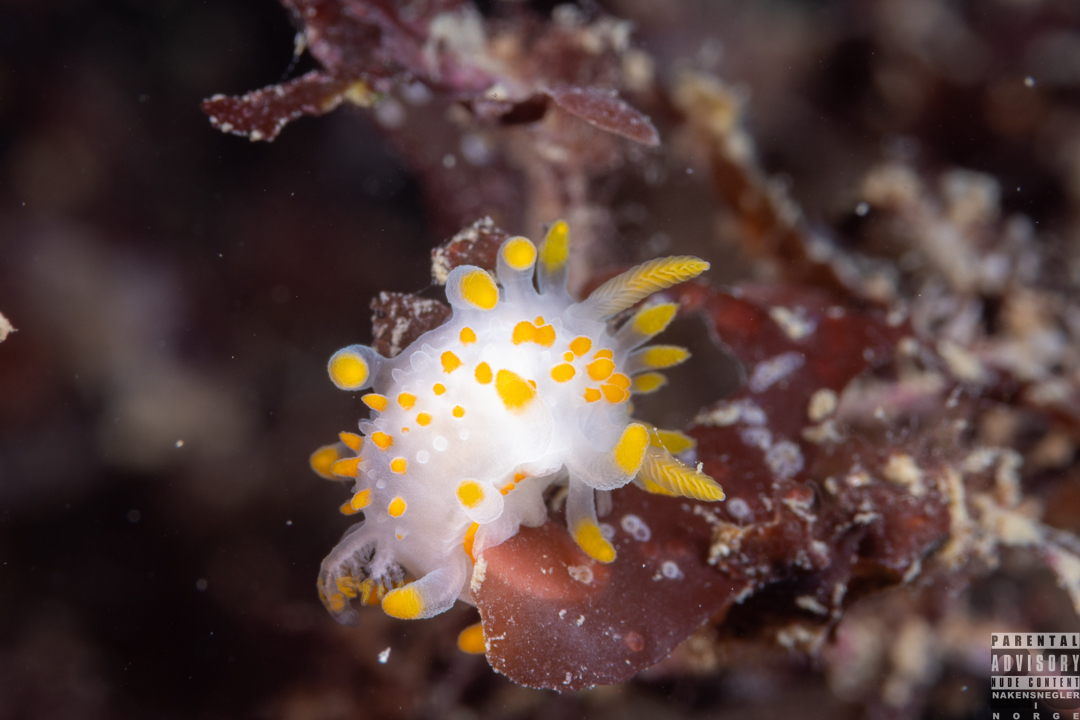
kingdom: Animalia
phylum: Mollusca
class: Gastropoda
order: Nudibranchia
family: Polyceridae
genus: Limacia
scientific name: Limacia clavigera
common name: Orange-clubbed sea slug
